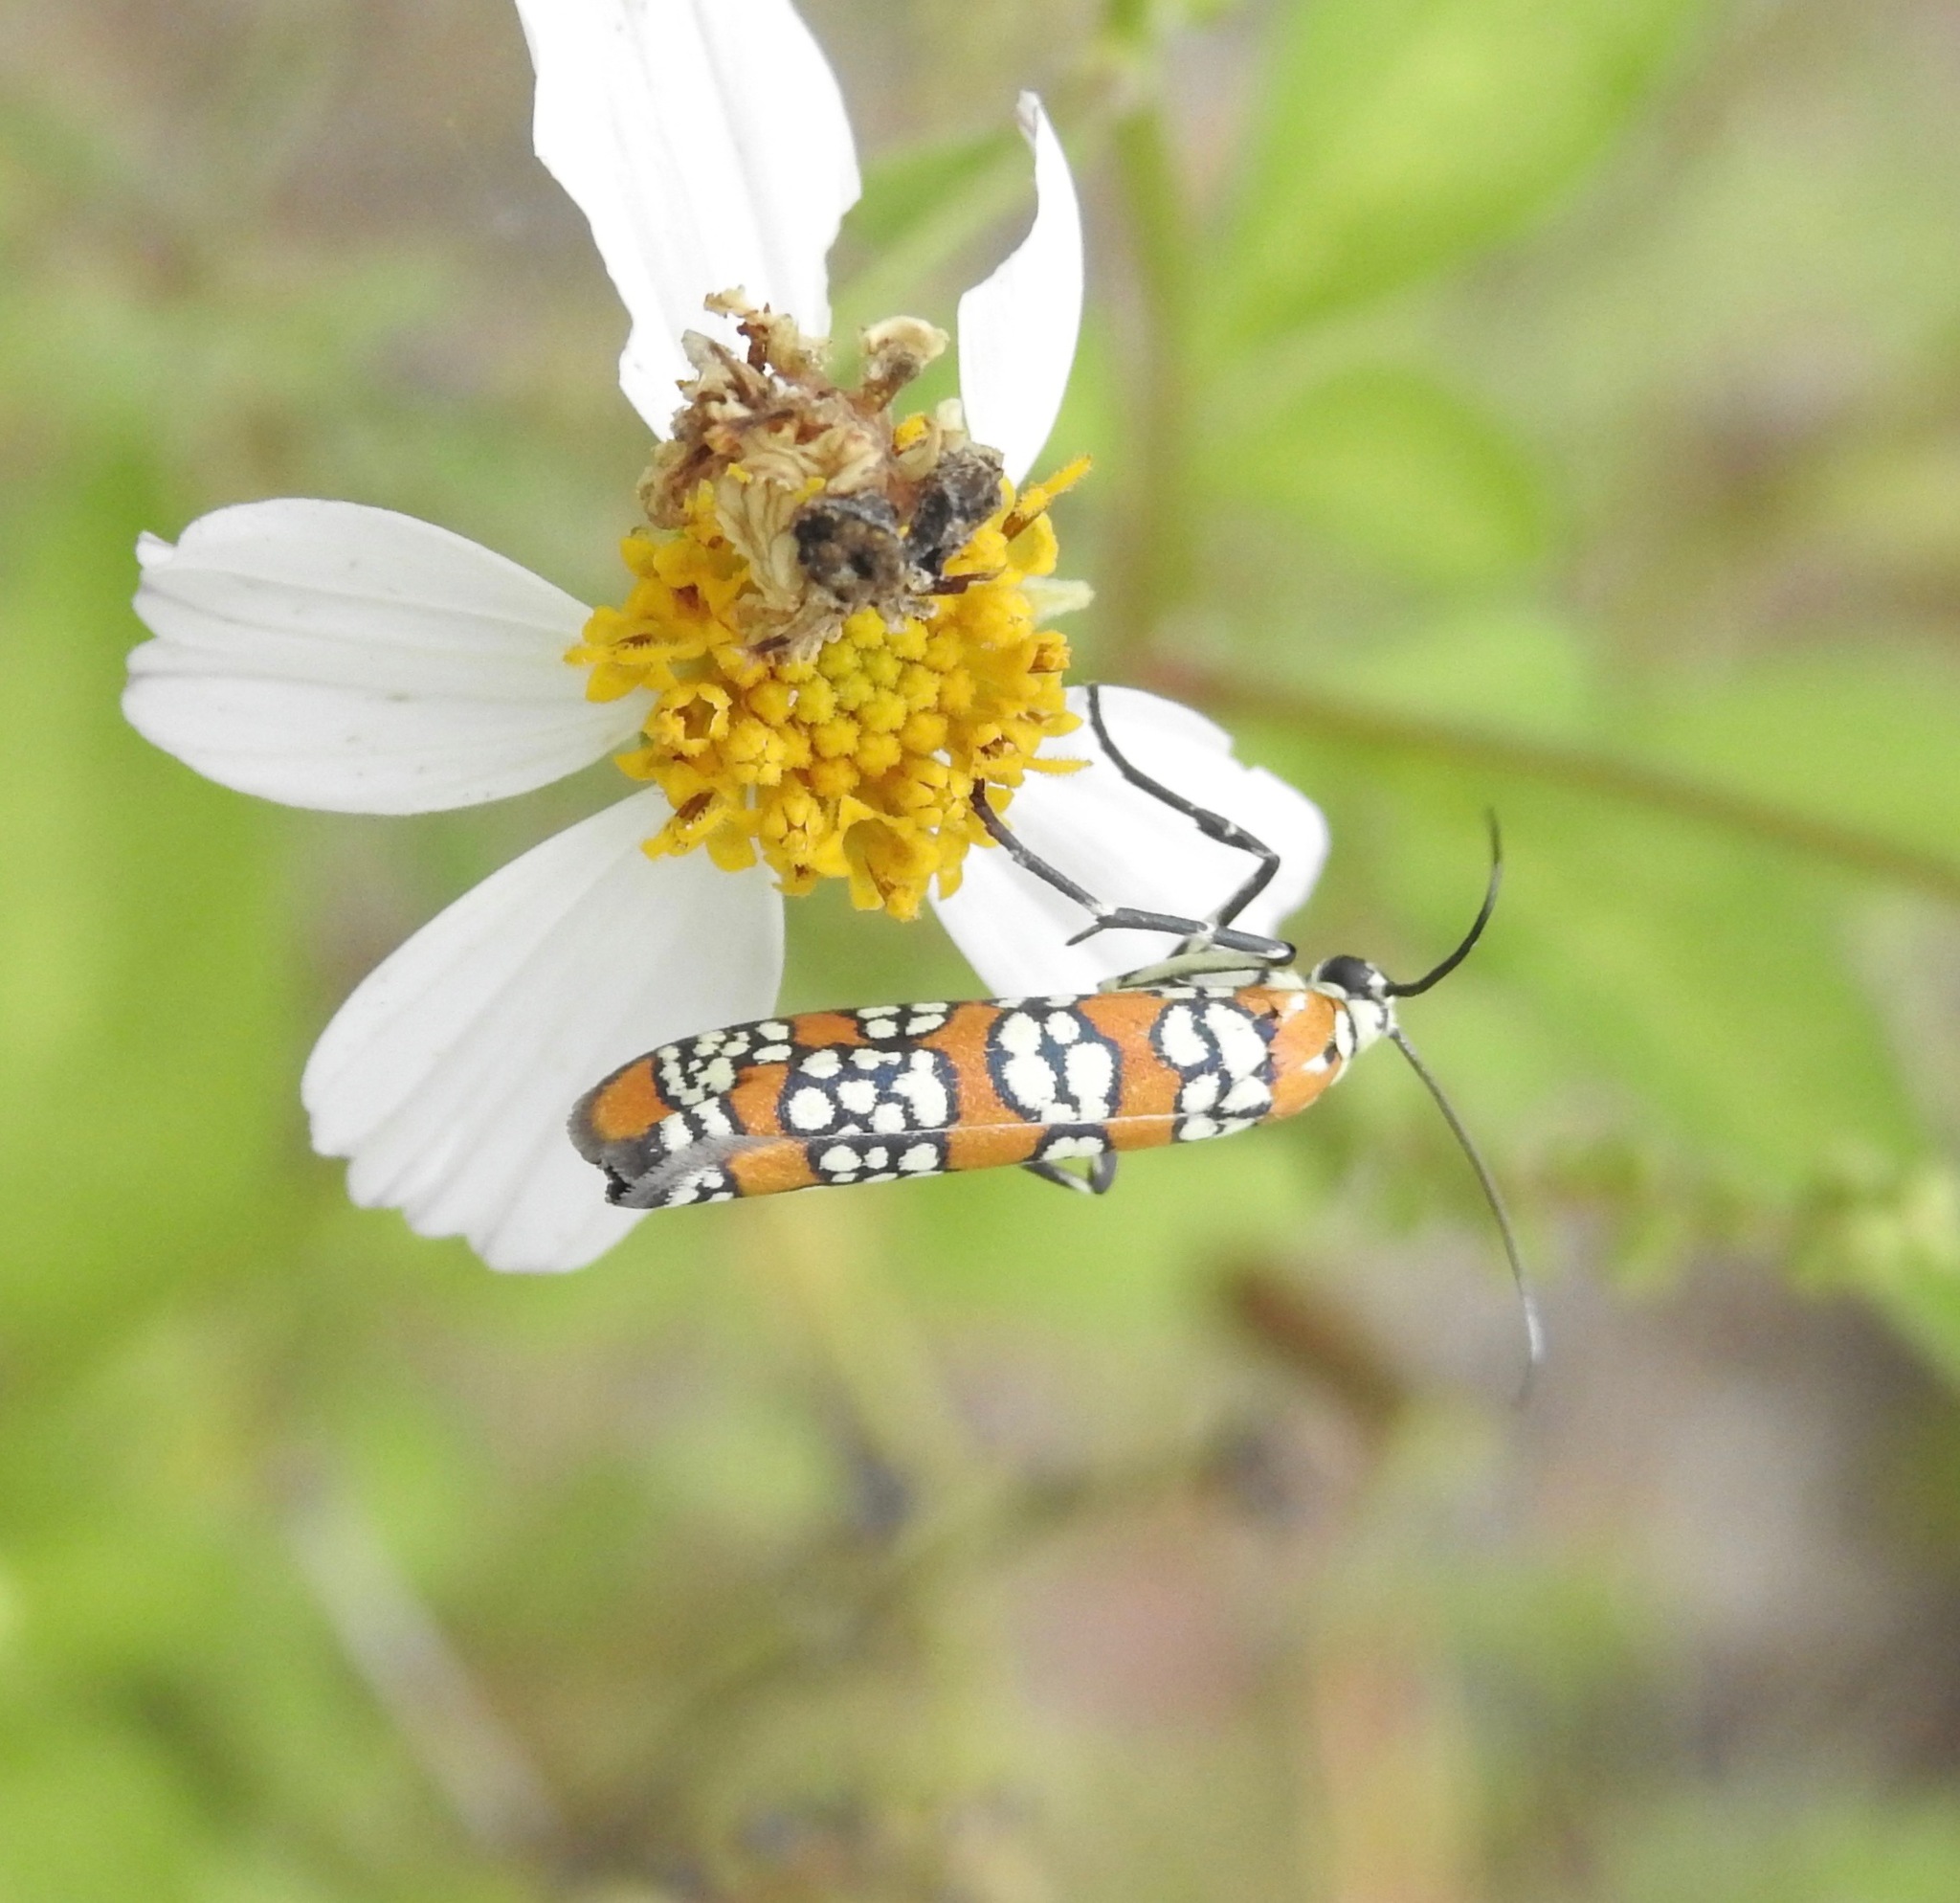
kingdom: Animalia
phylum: Arthropoda
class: Insecta
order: Lepidoptera
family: Attevidae
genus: Atteva
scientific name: Atteva punctella
